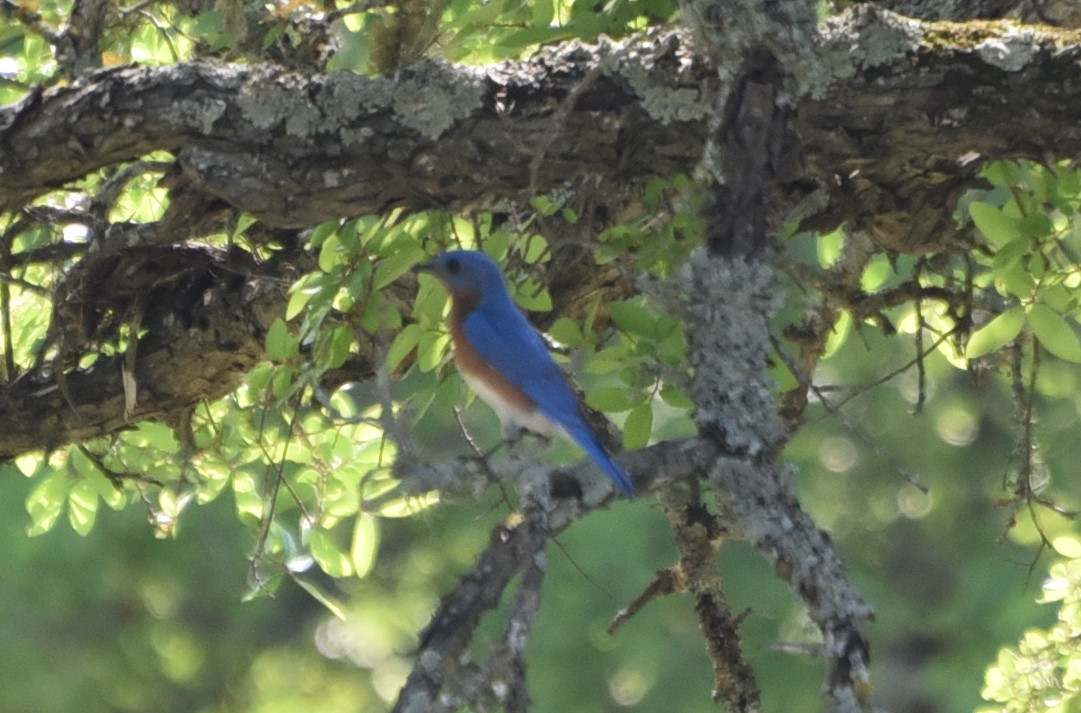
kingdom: Animalia
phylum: Chordata
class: Aves
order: Passeriformes
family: Turdidae
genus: Sialia
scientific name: Sialia sialis
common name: Eastern bluebird
